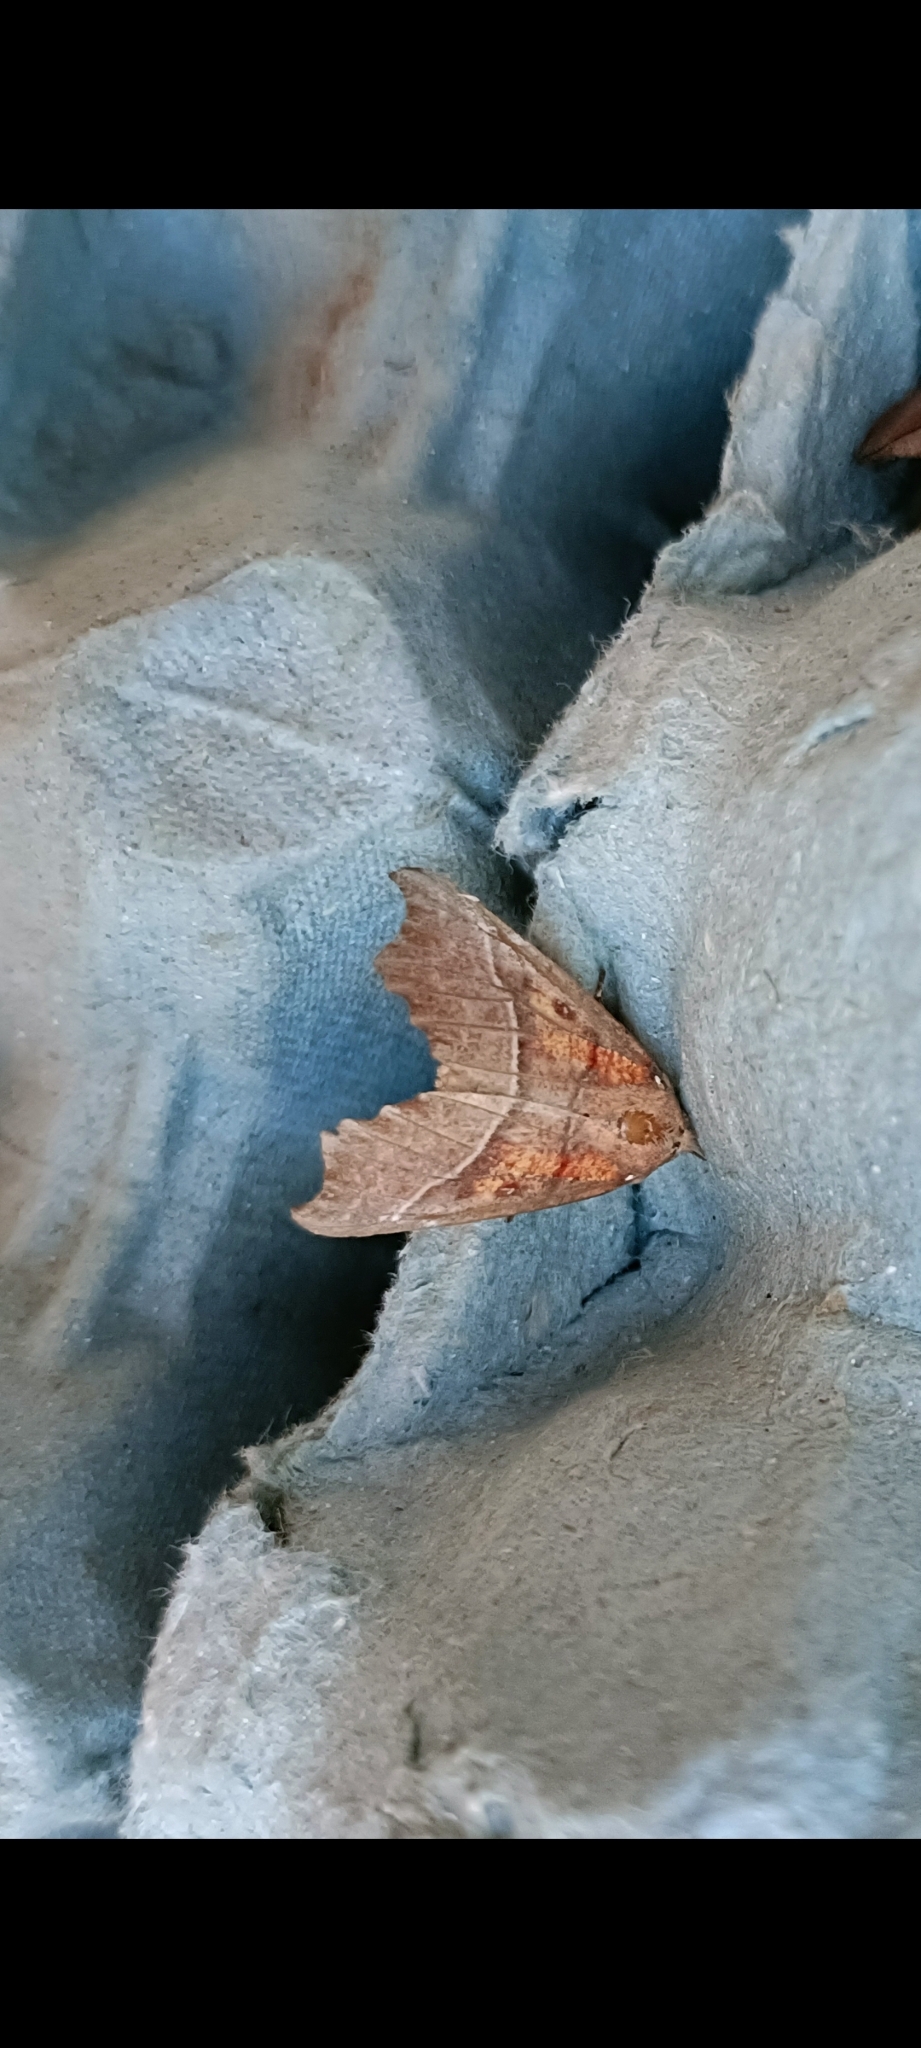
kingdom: Animalia
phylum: Arthropoda
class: Insecta
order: Lepidoptera
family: Erebidae
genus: Scoliopteryx
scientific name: Scoliopteryx libatrix
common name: Herald
